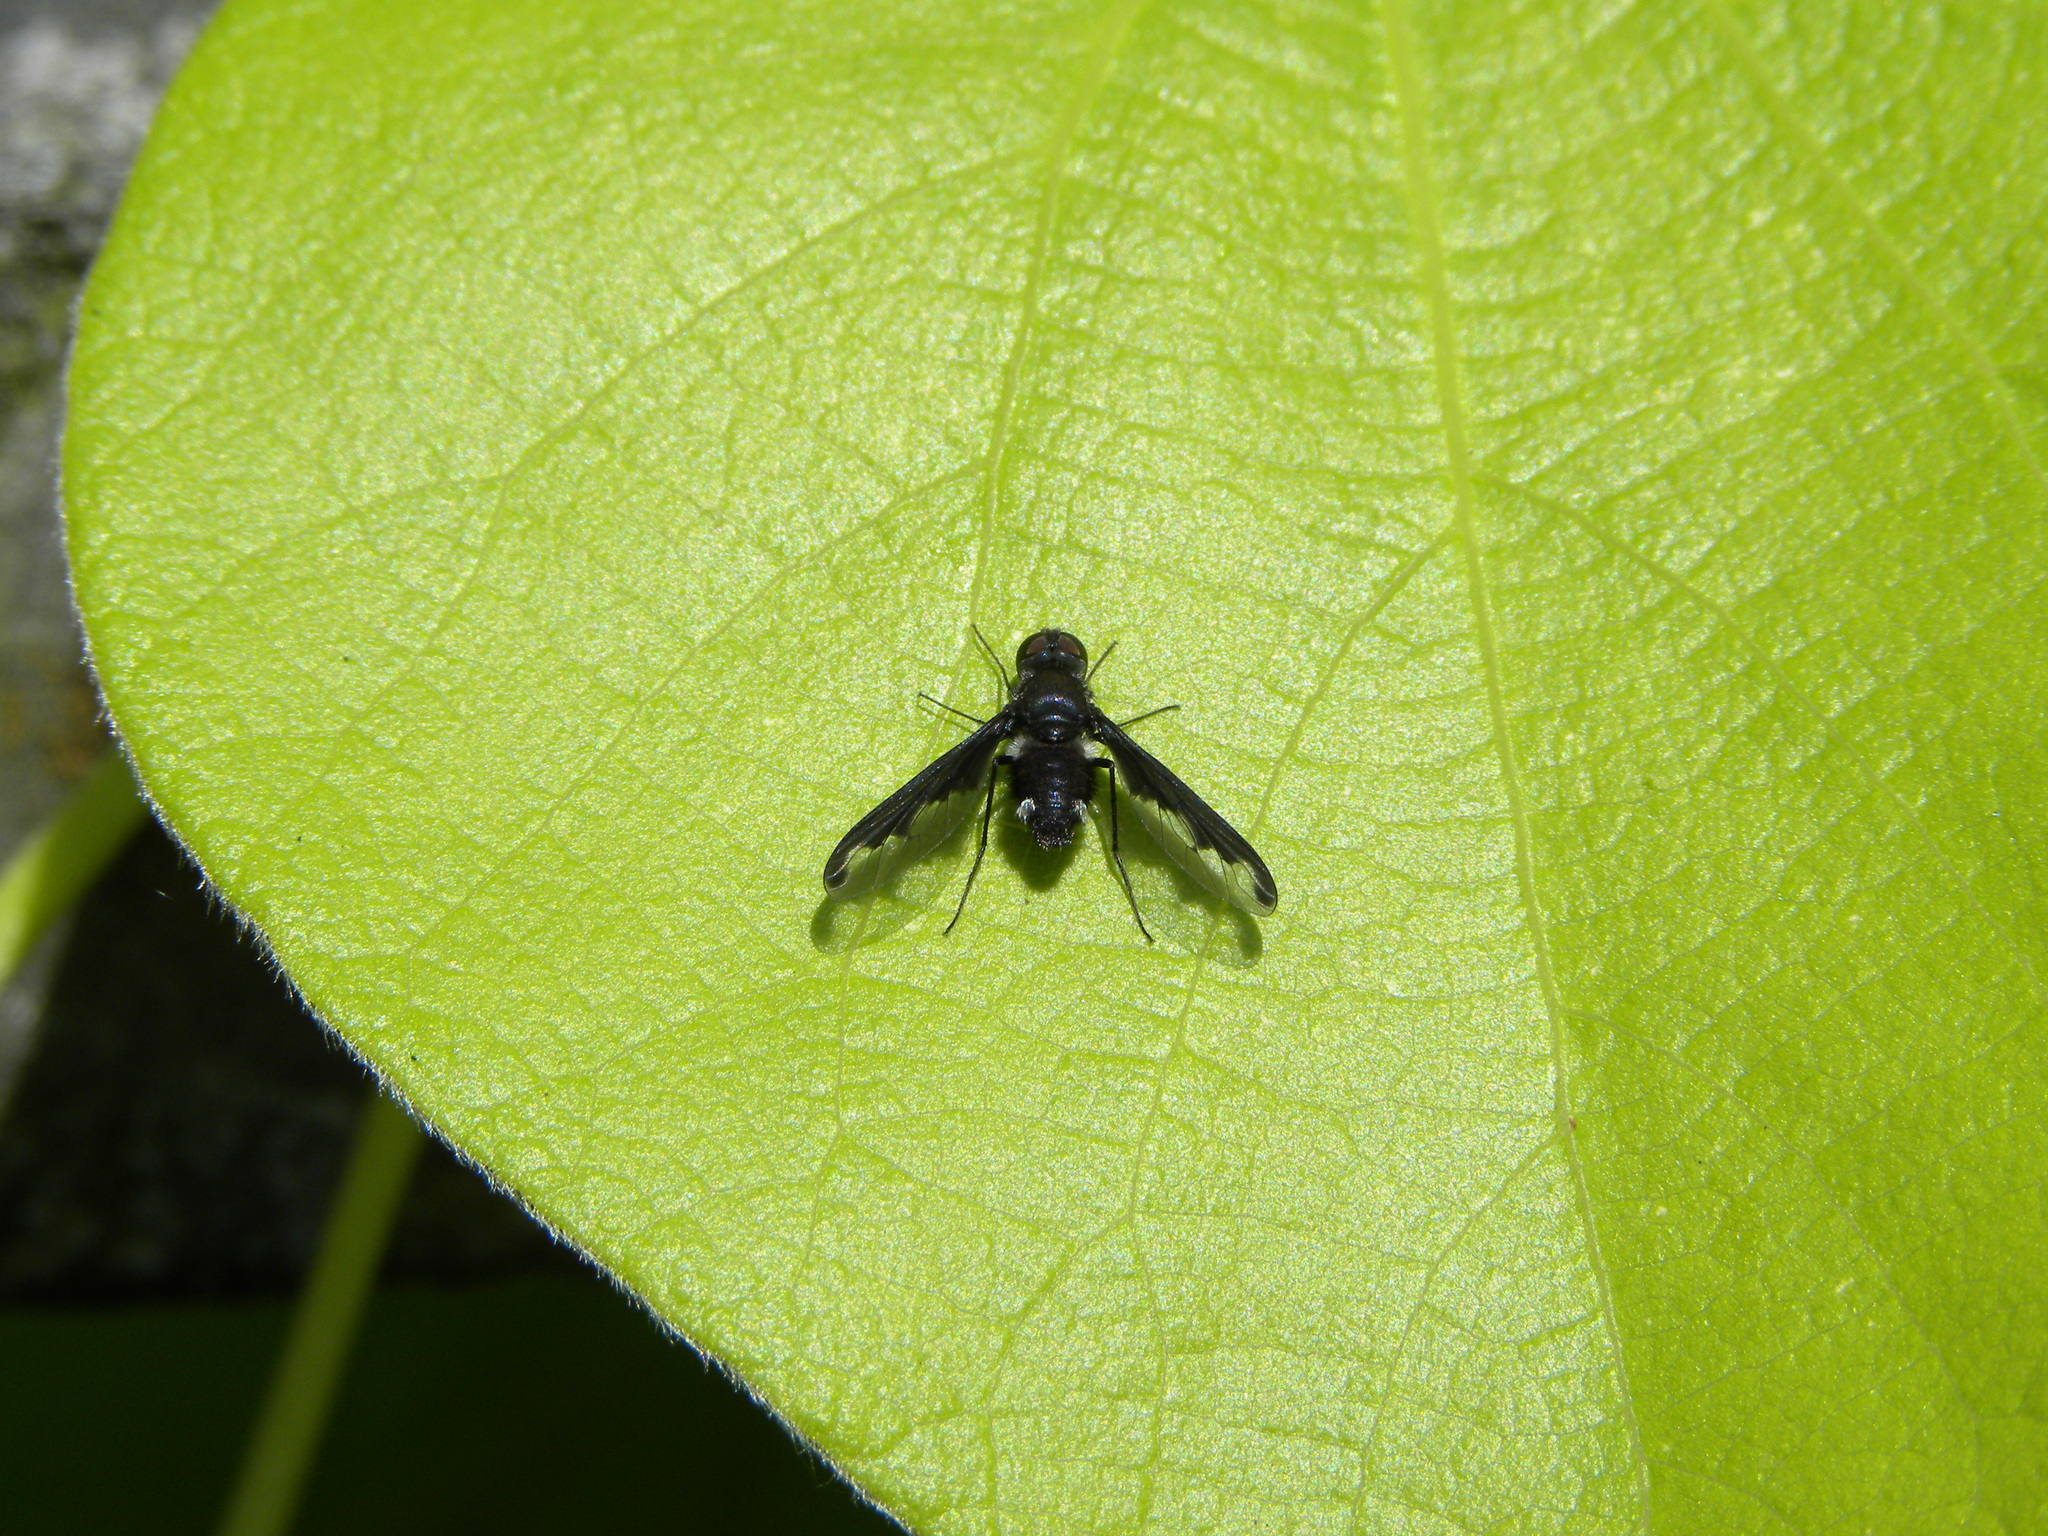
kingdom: Animalia
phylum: Arthropoda
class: Insecta
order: Diptera
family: Bombyliidae
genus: Anthrax
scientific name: Anthrax argyropygus
